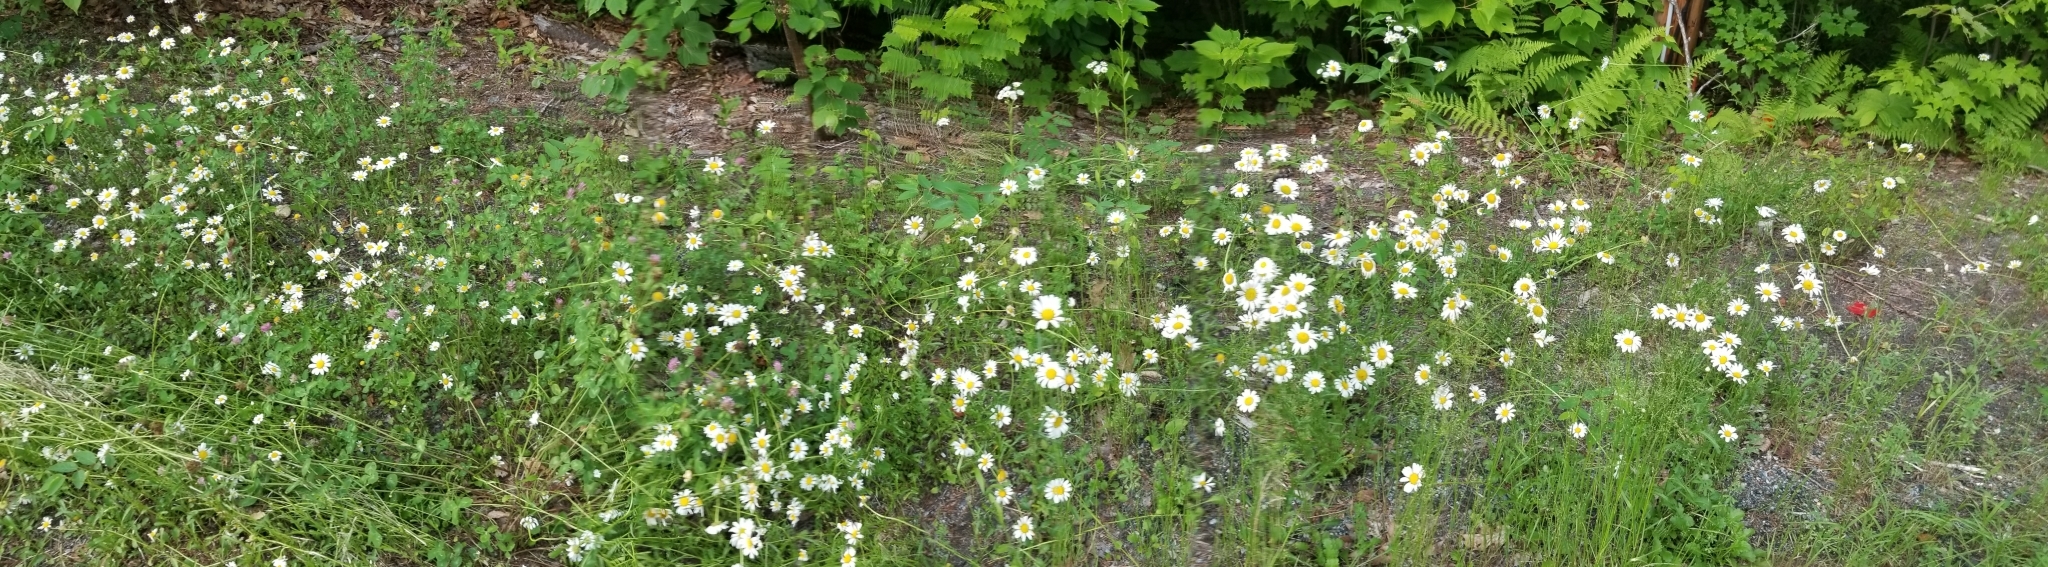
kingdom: Plantae
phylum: Tracheophyta
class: Magnoliopsida
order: Asterales
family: Asteraceae
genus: Leucanthemum
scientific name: Leucanthemum vulgare
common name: Oxeye daisy
